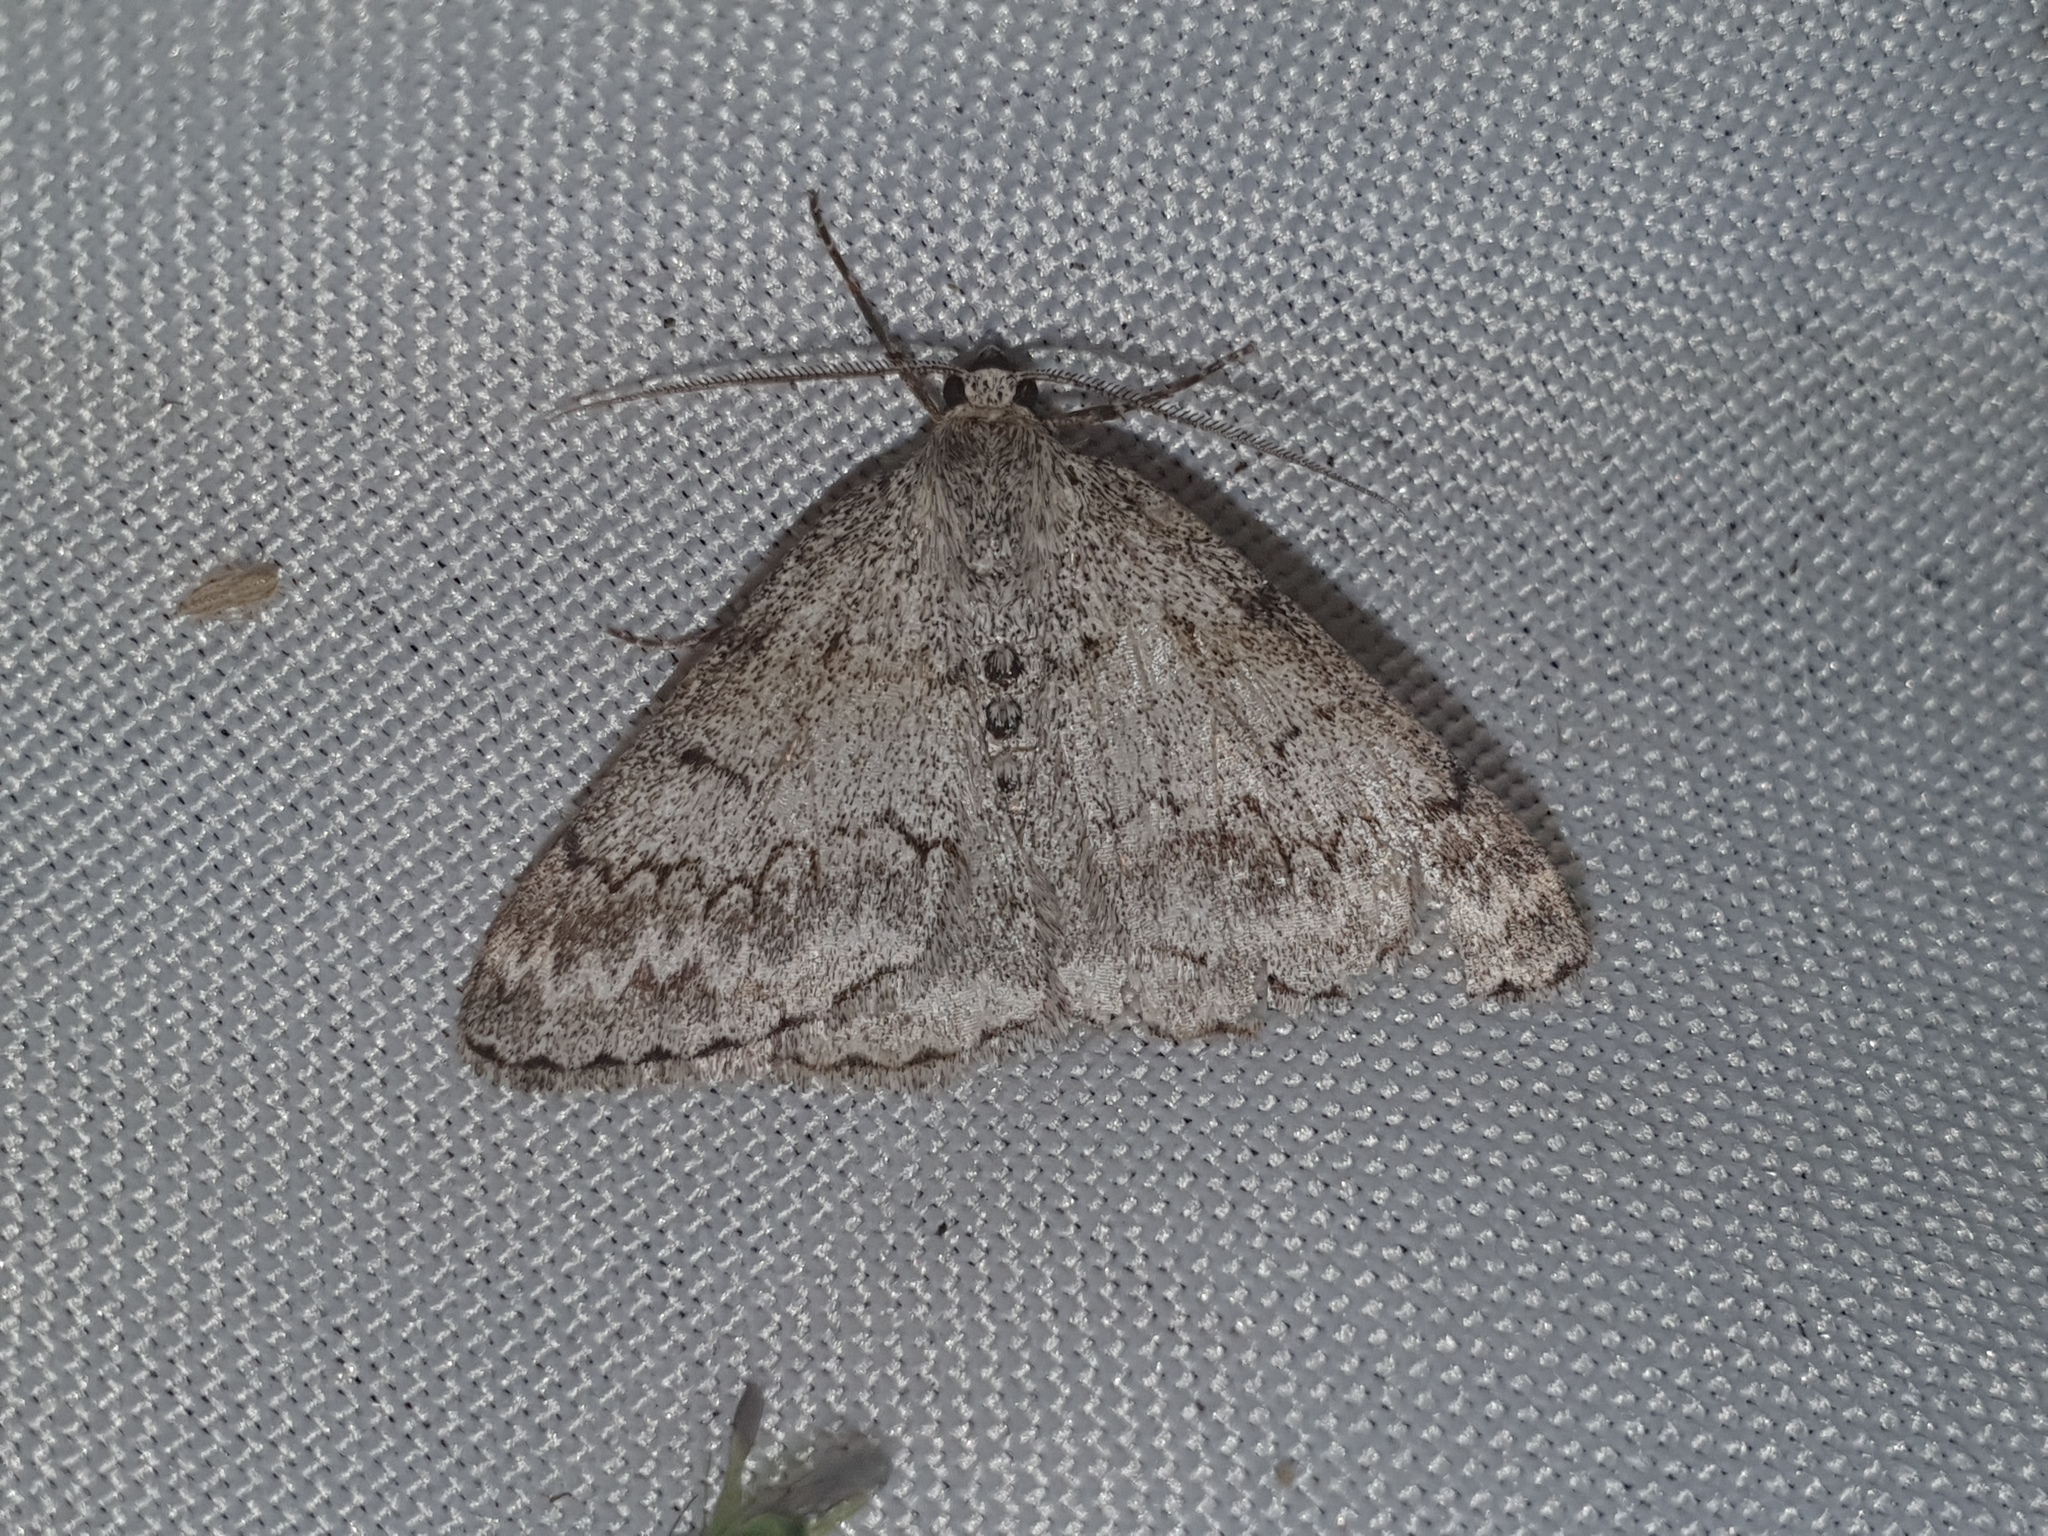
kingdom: Animalia
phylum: Arthropoda
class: Insecta
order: Lepidoptera
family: Geometridae
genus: Pseudoterpna
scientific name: Pseudoterpna coronillaria
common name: Jersey emerald
